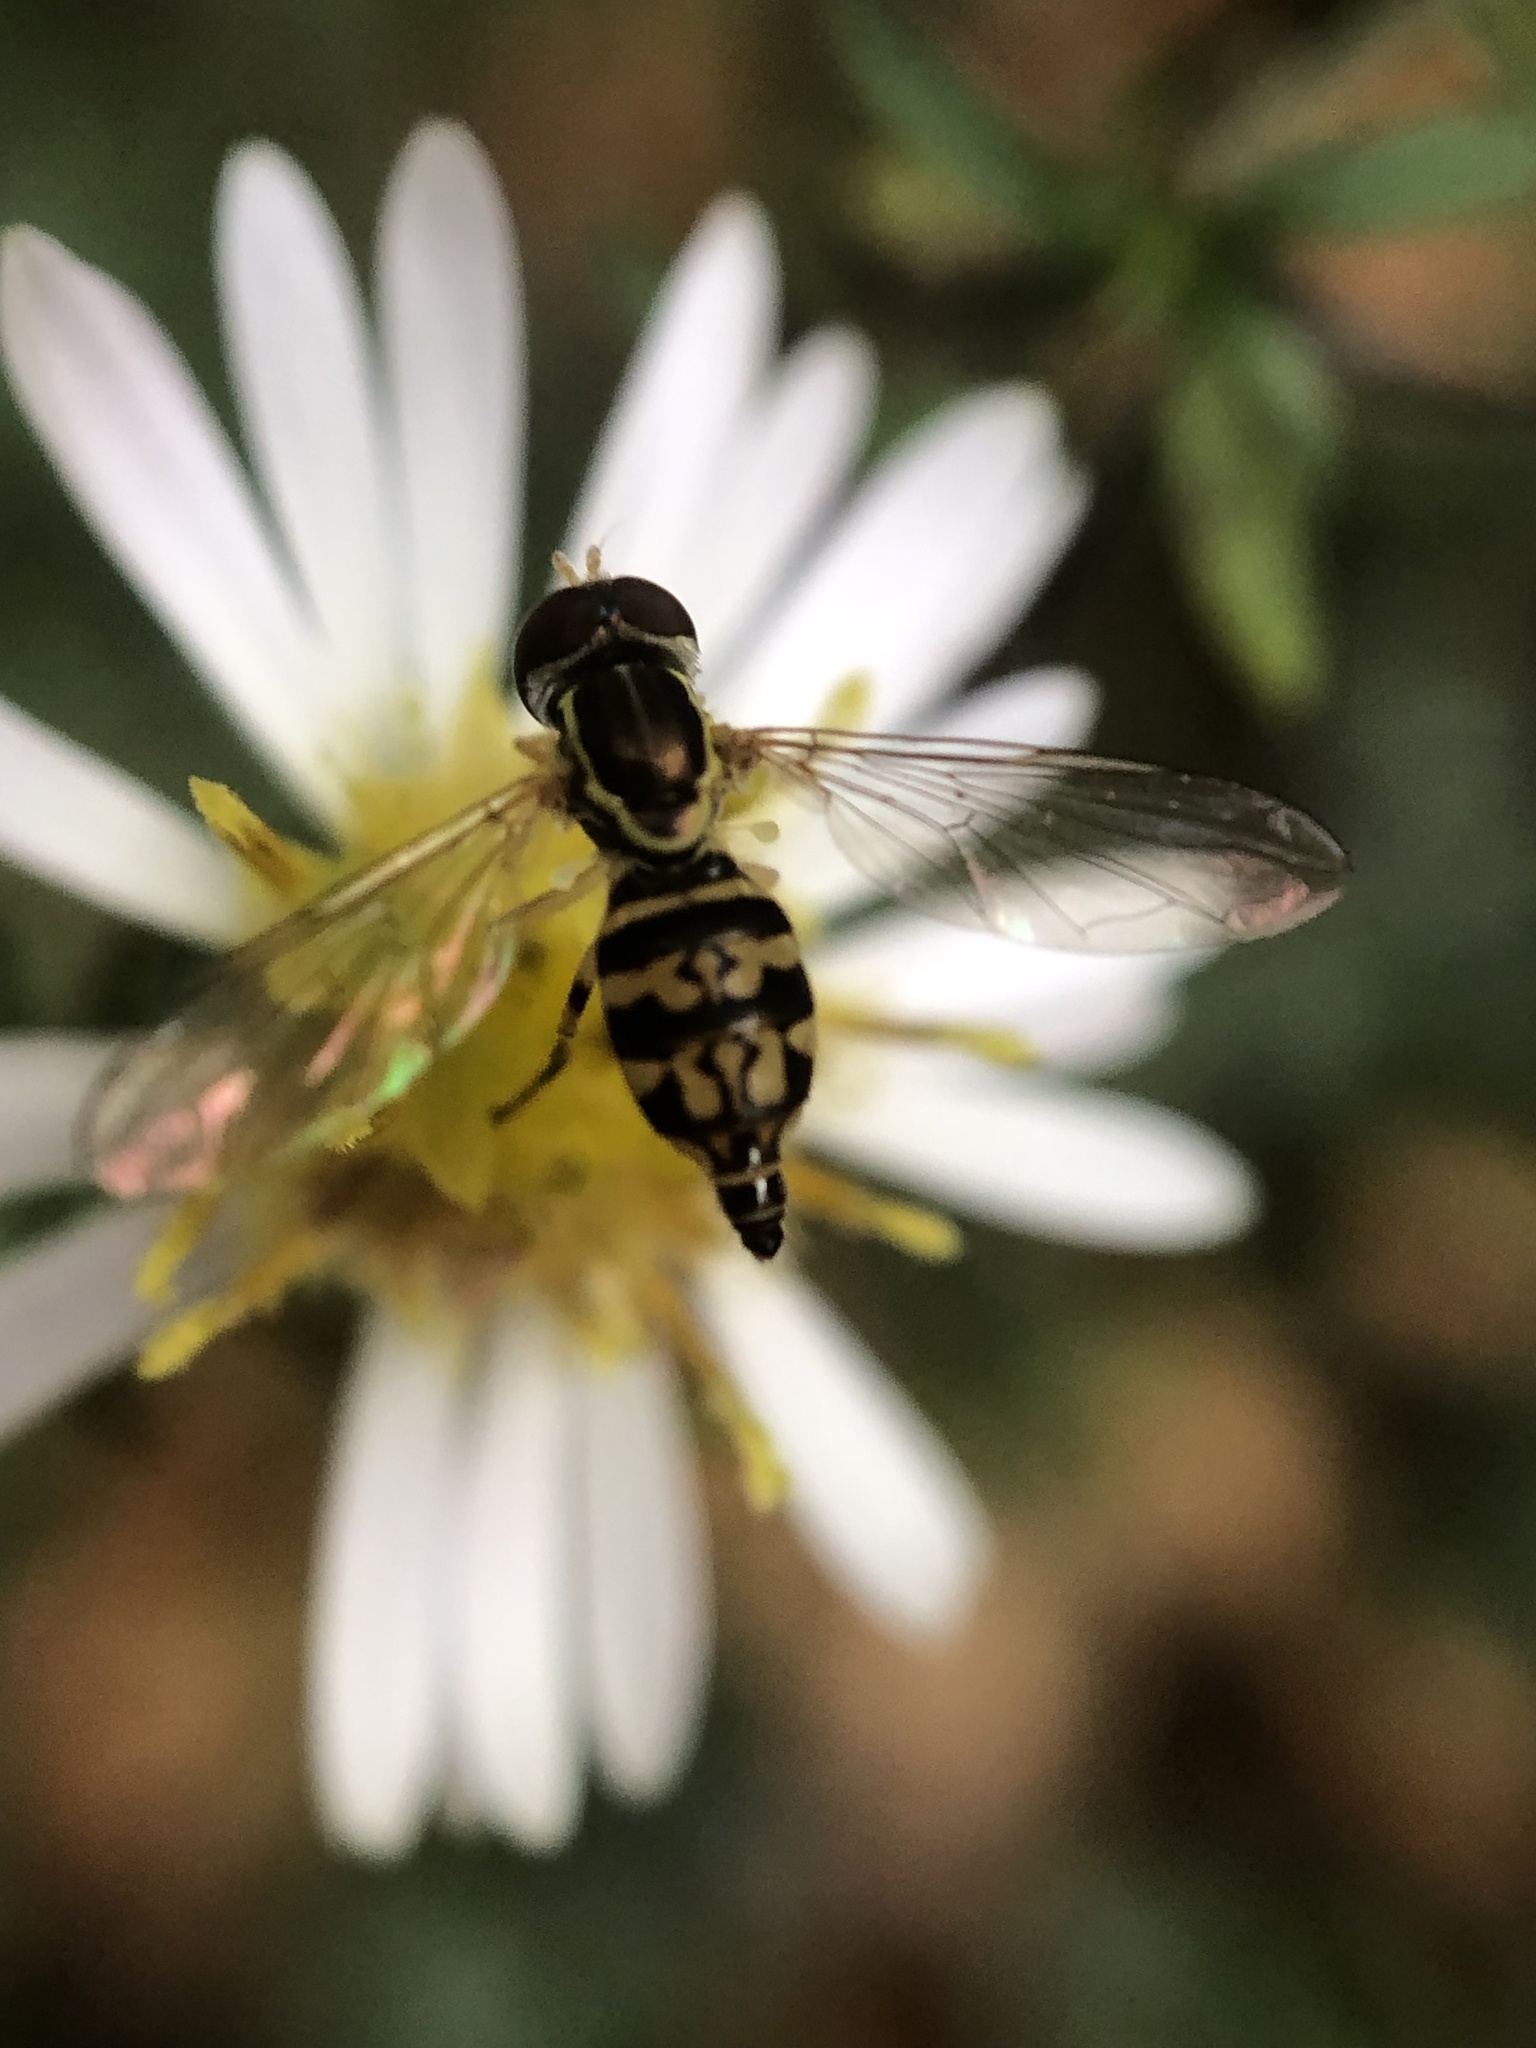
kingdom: Animalia
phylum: Arthropoda
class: Insecta
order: Diptera
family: Syrphidae
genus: Toxomerus
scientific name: Toxomerus geminatus
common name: Eastern calligrapher
